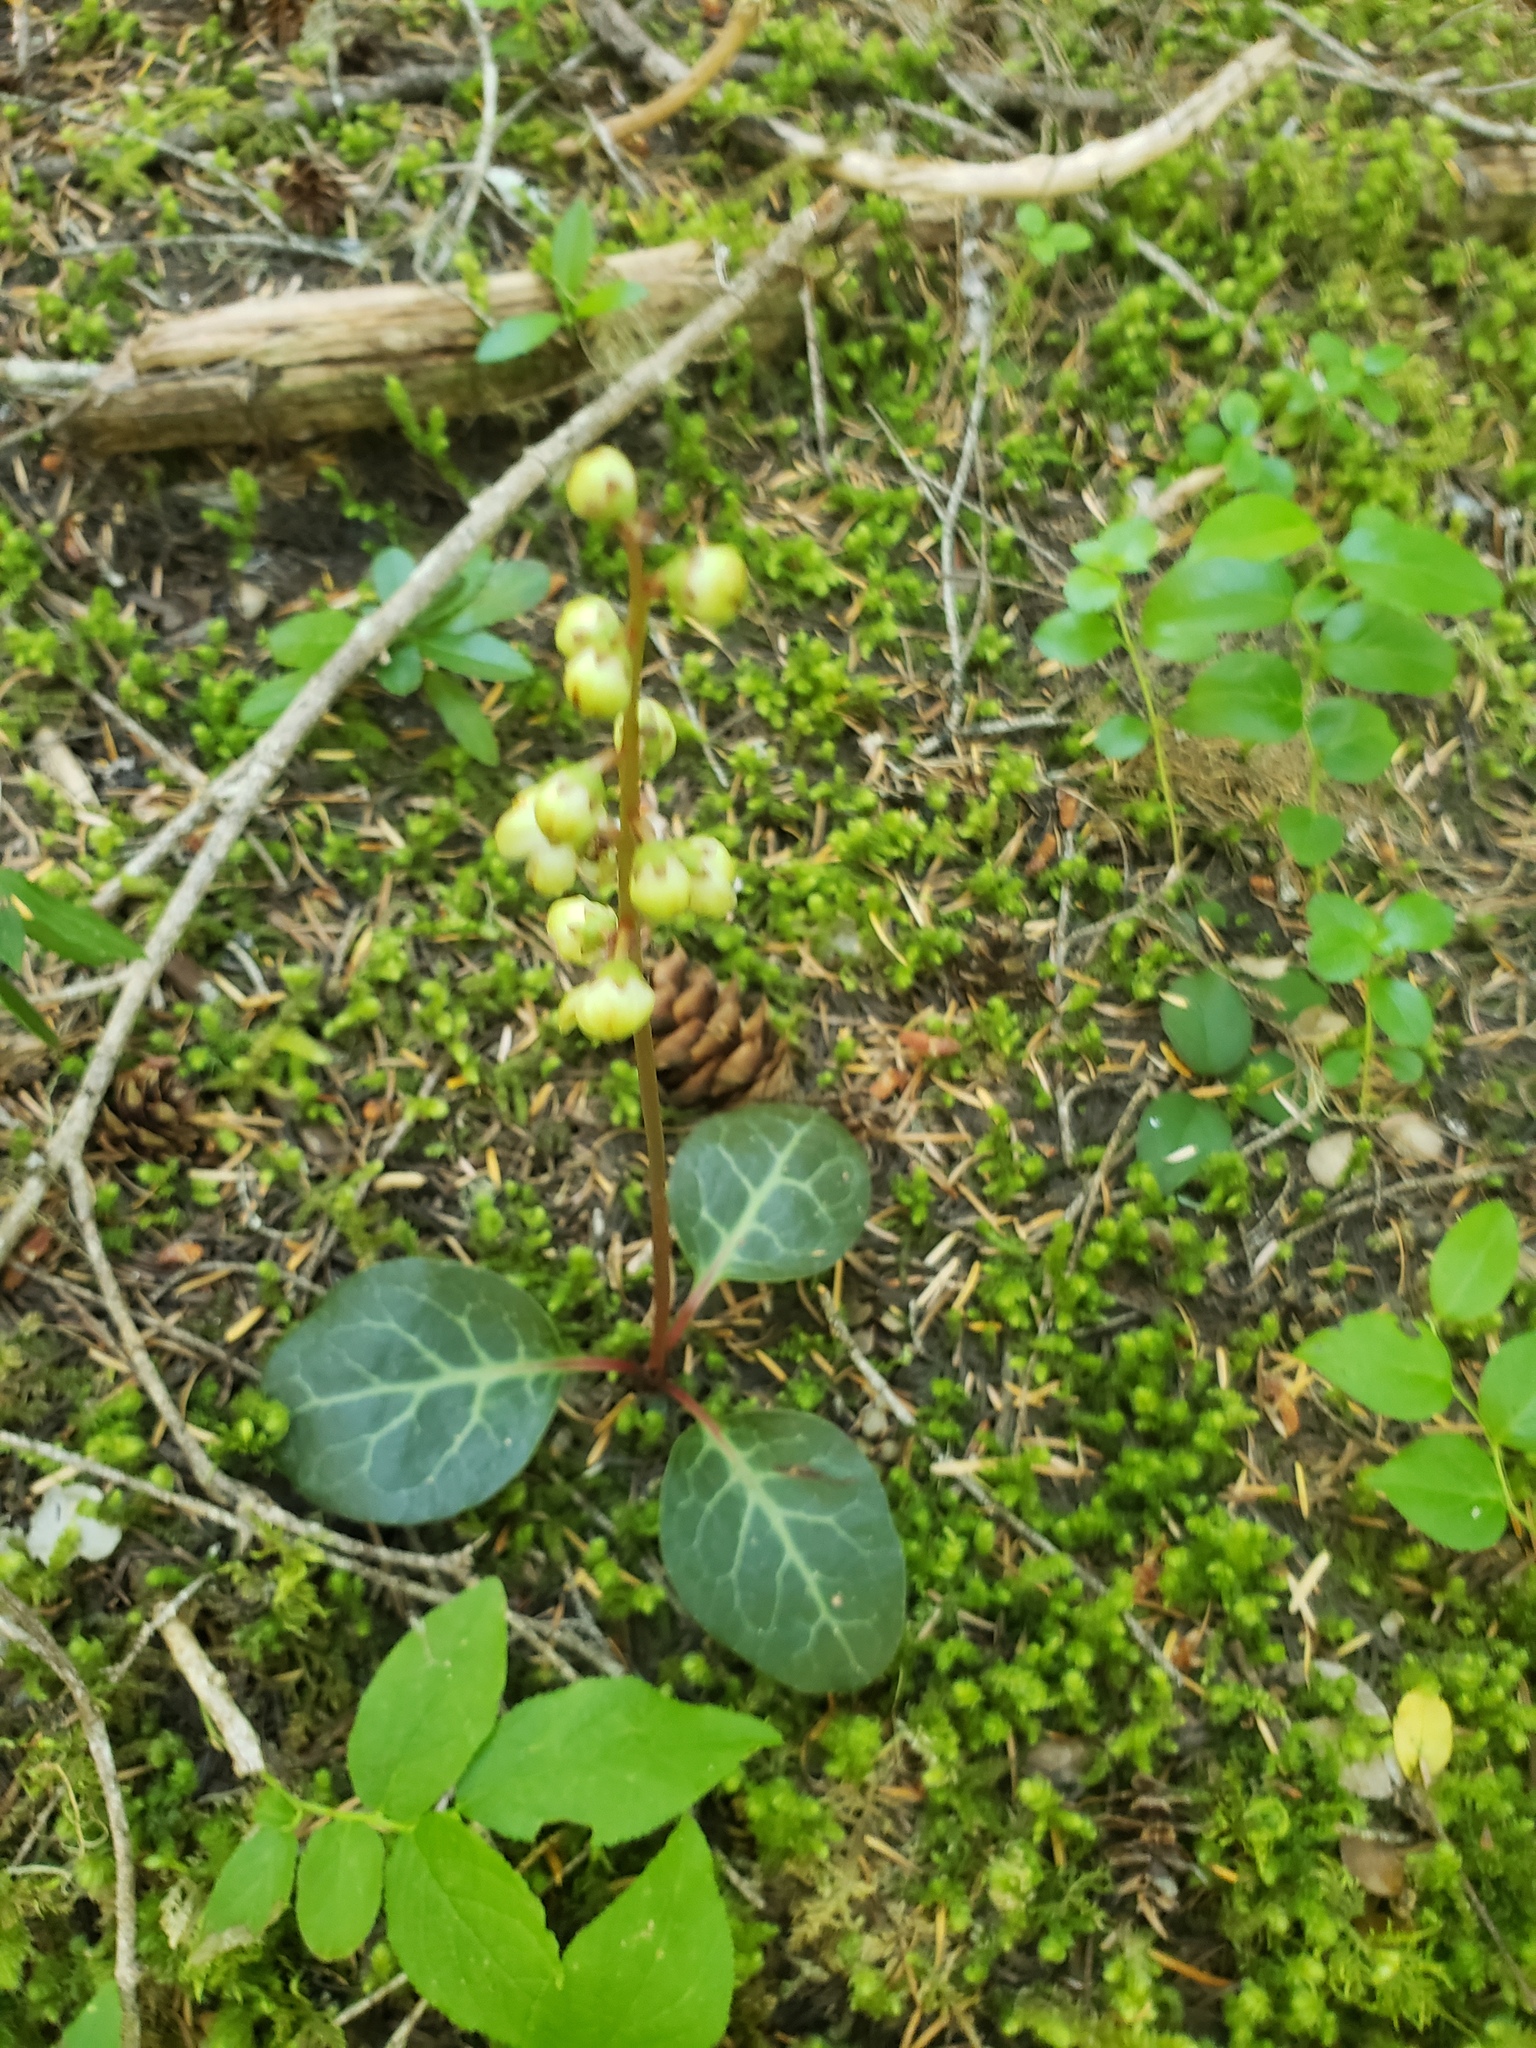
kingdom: Plantae
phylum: Tracheophyta
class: Magnoliopsida
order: Ericales
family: Ericaceae
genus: Pyrola
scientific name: Pyrola picta
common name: White-vein wintergreen
